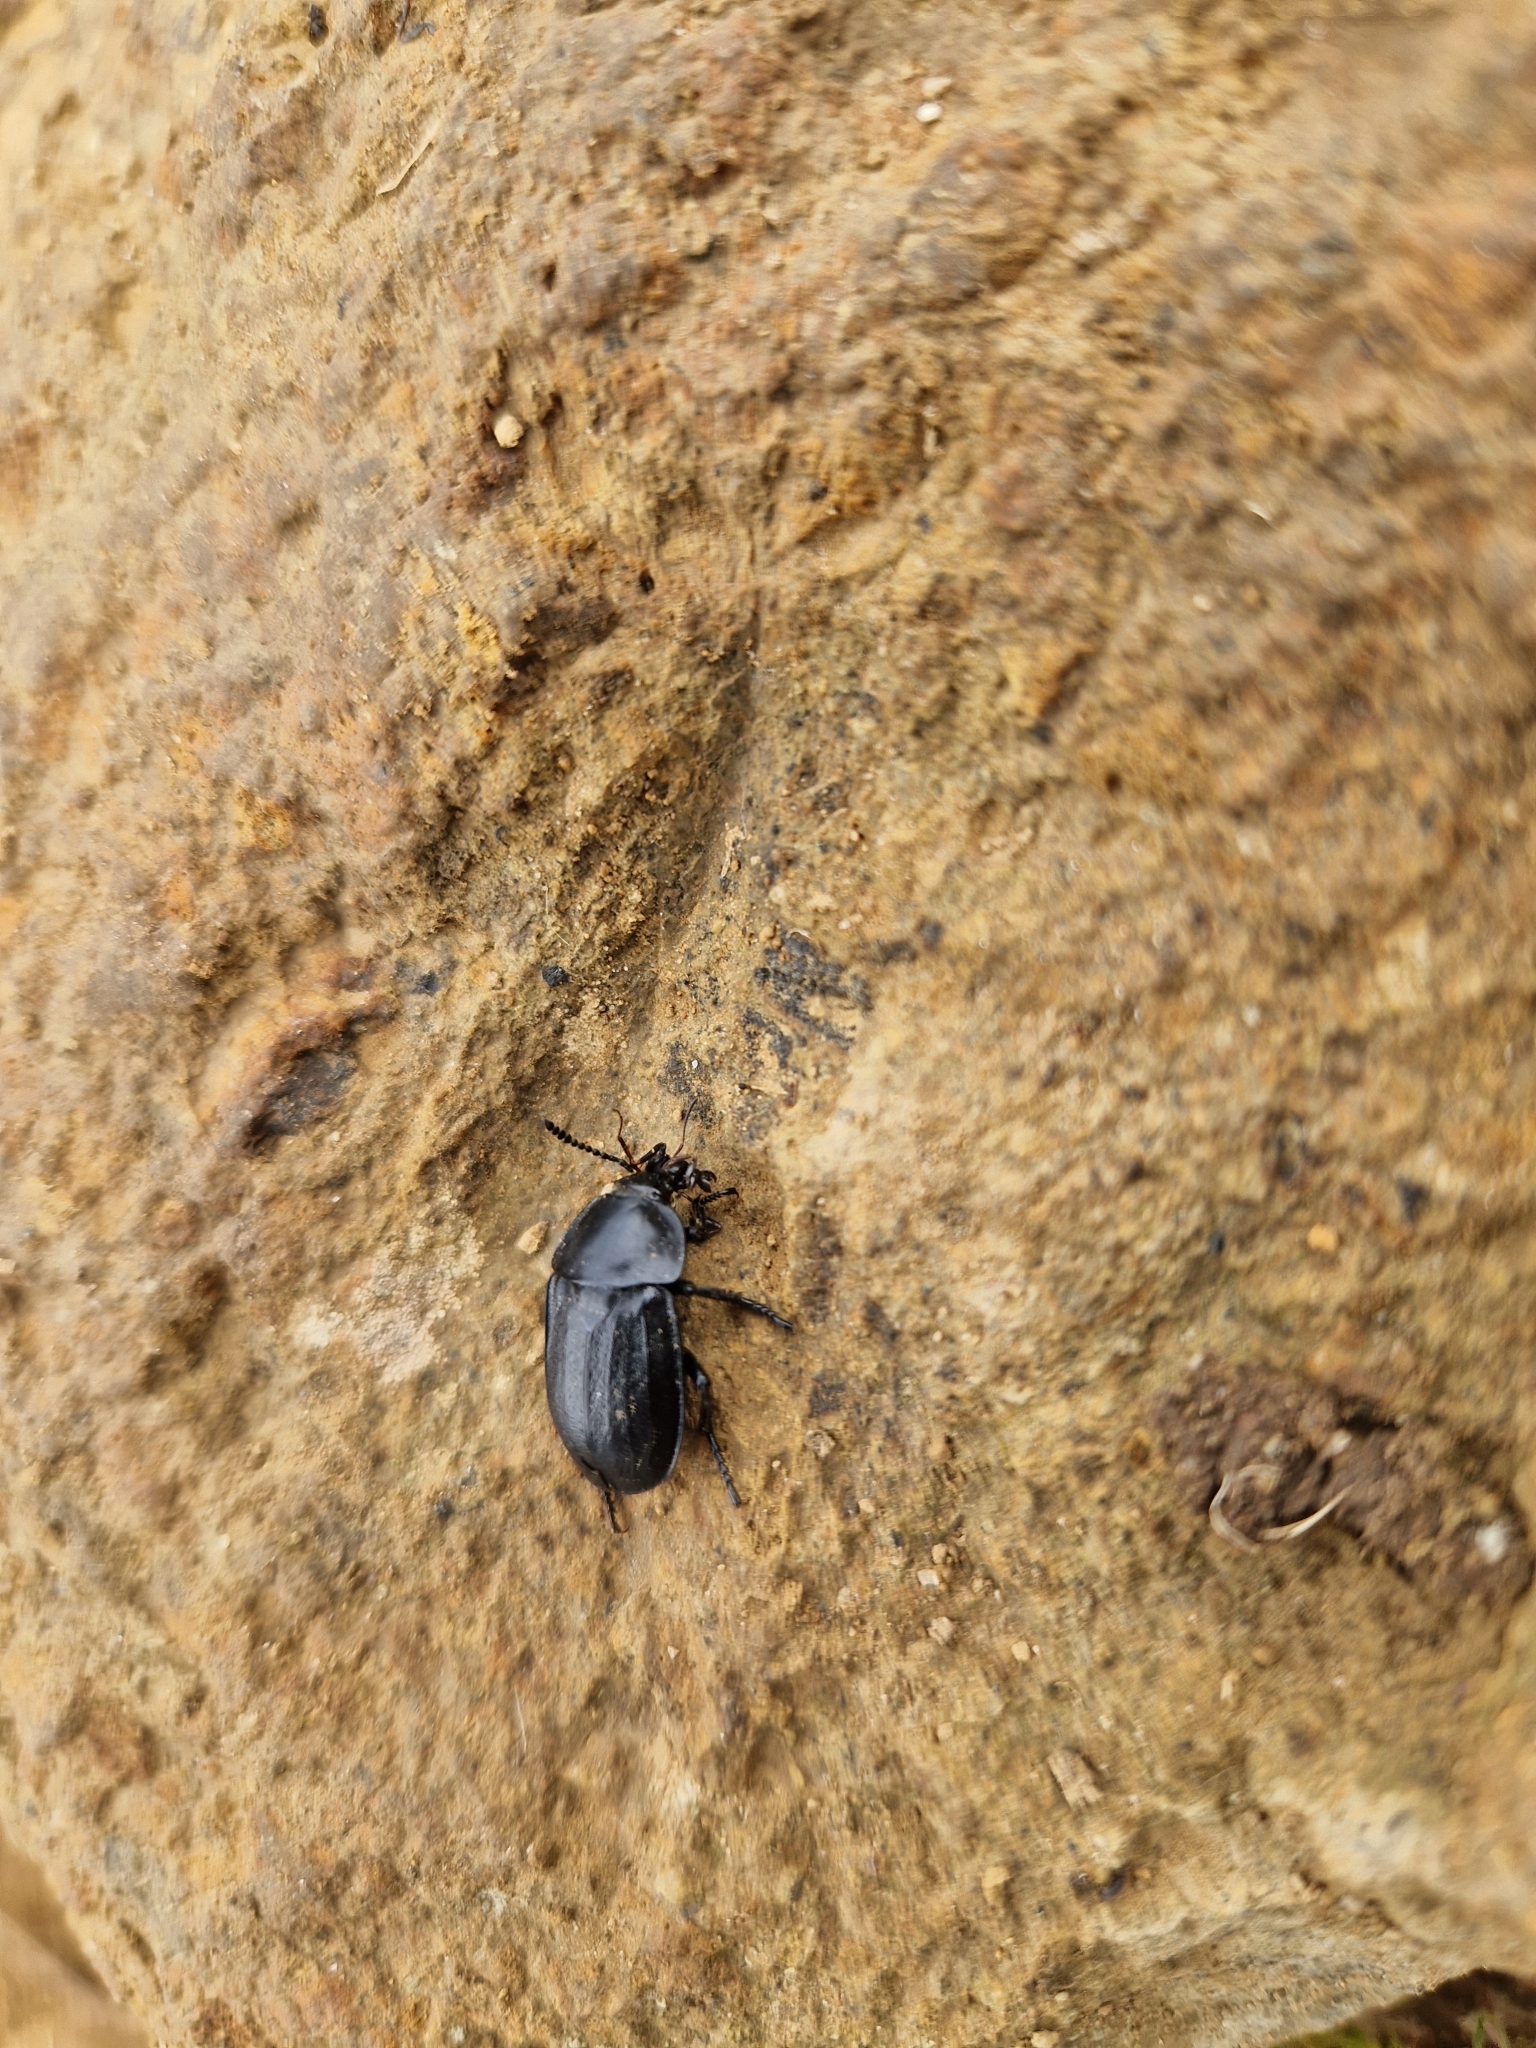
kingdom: Animalia
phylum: Arthropoda
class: Insecta
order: Coleoptera
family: Staphylinidae
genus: Silpha
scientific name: Silpha tyrolensis
